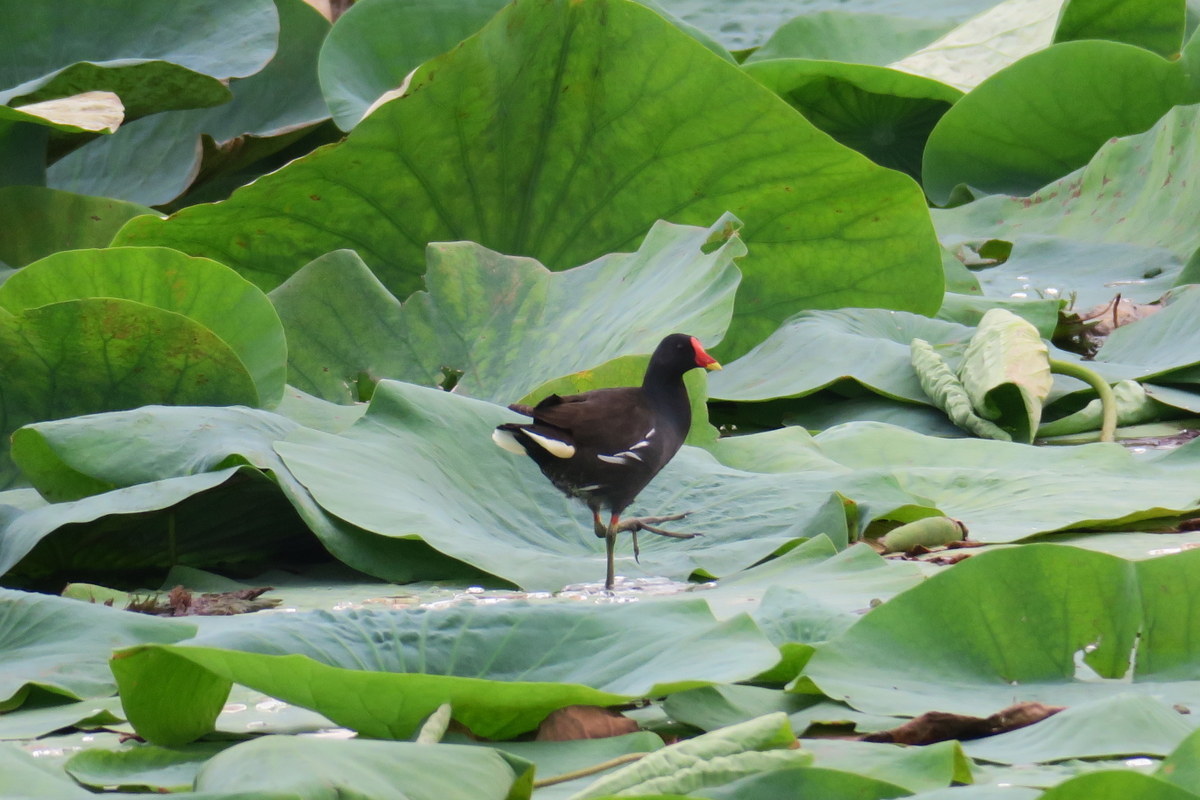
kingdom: Animalia
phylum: Chordata
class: Aves
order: Gruiformes
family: Rallidae
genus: Gallinula
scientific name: Gallinula chloropus
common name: Common moorhen
